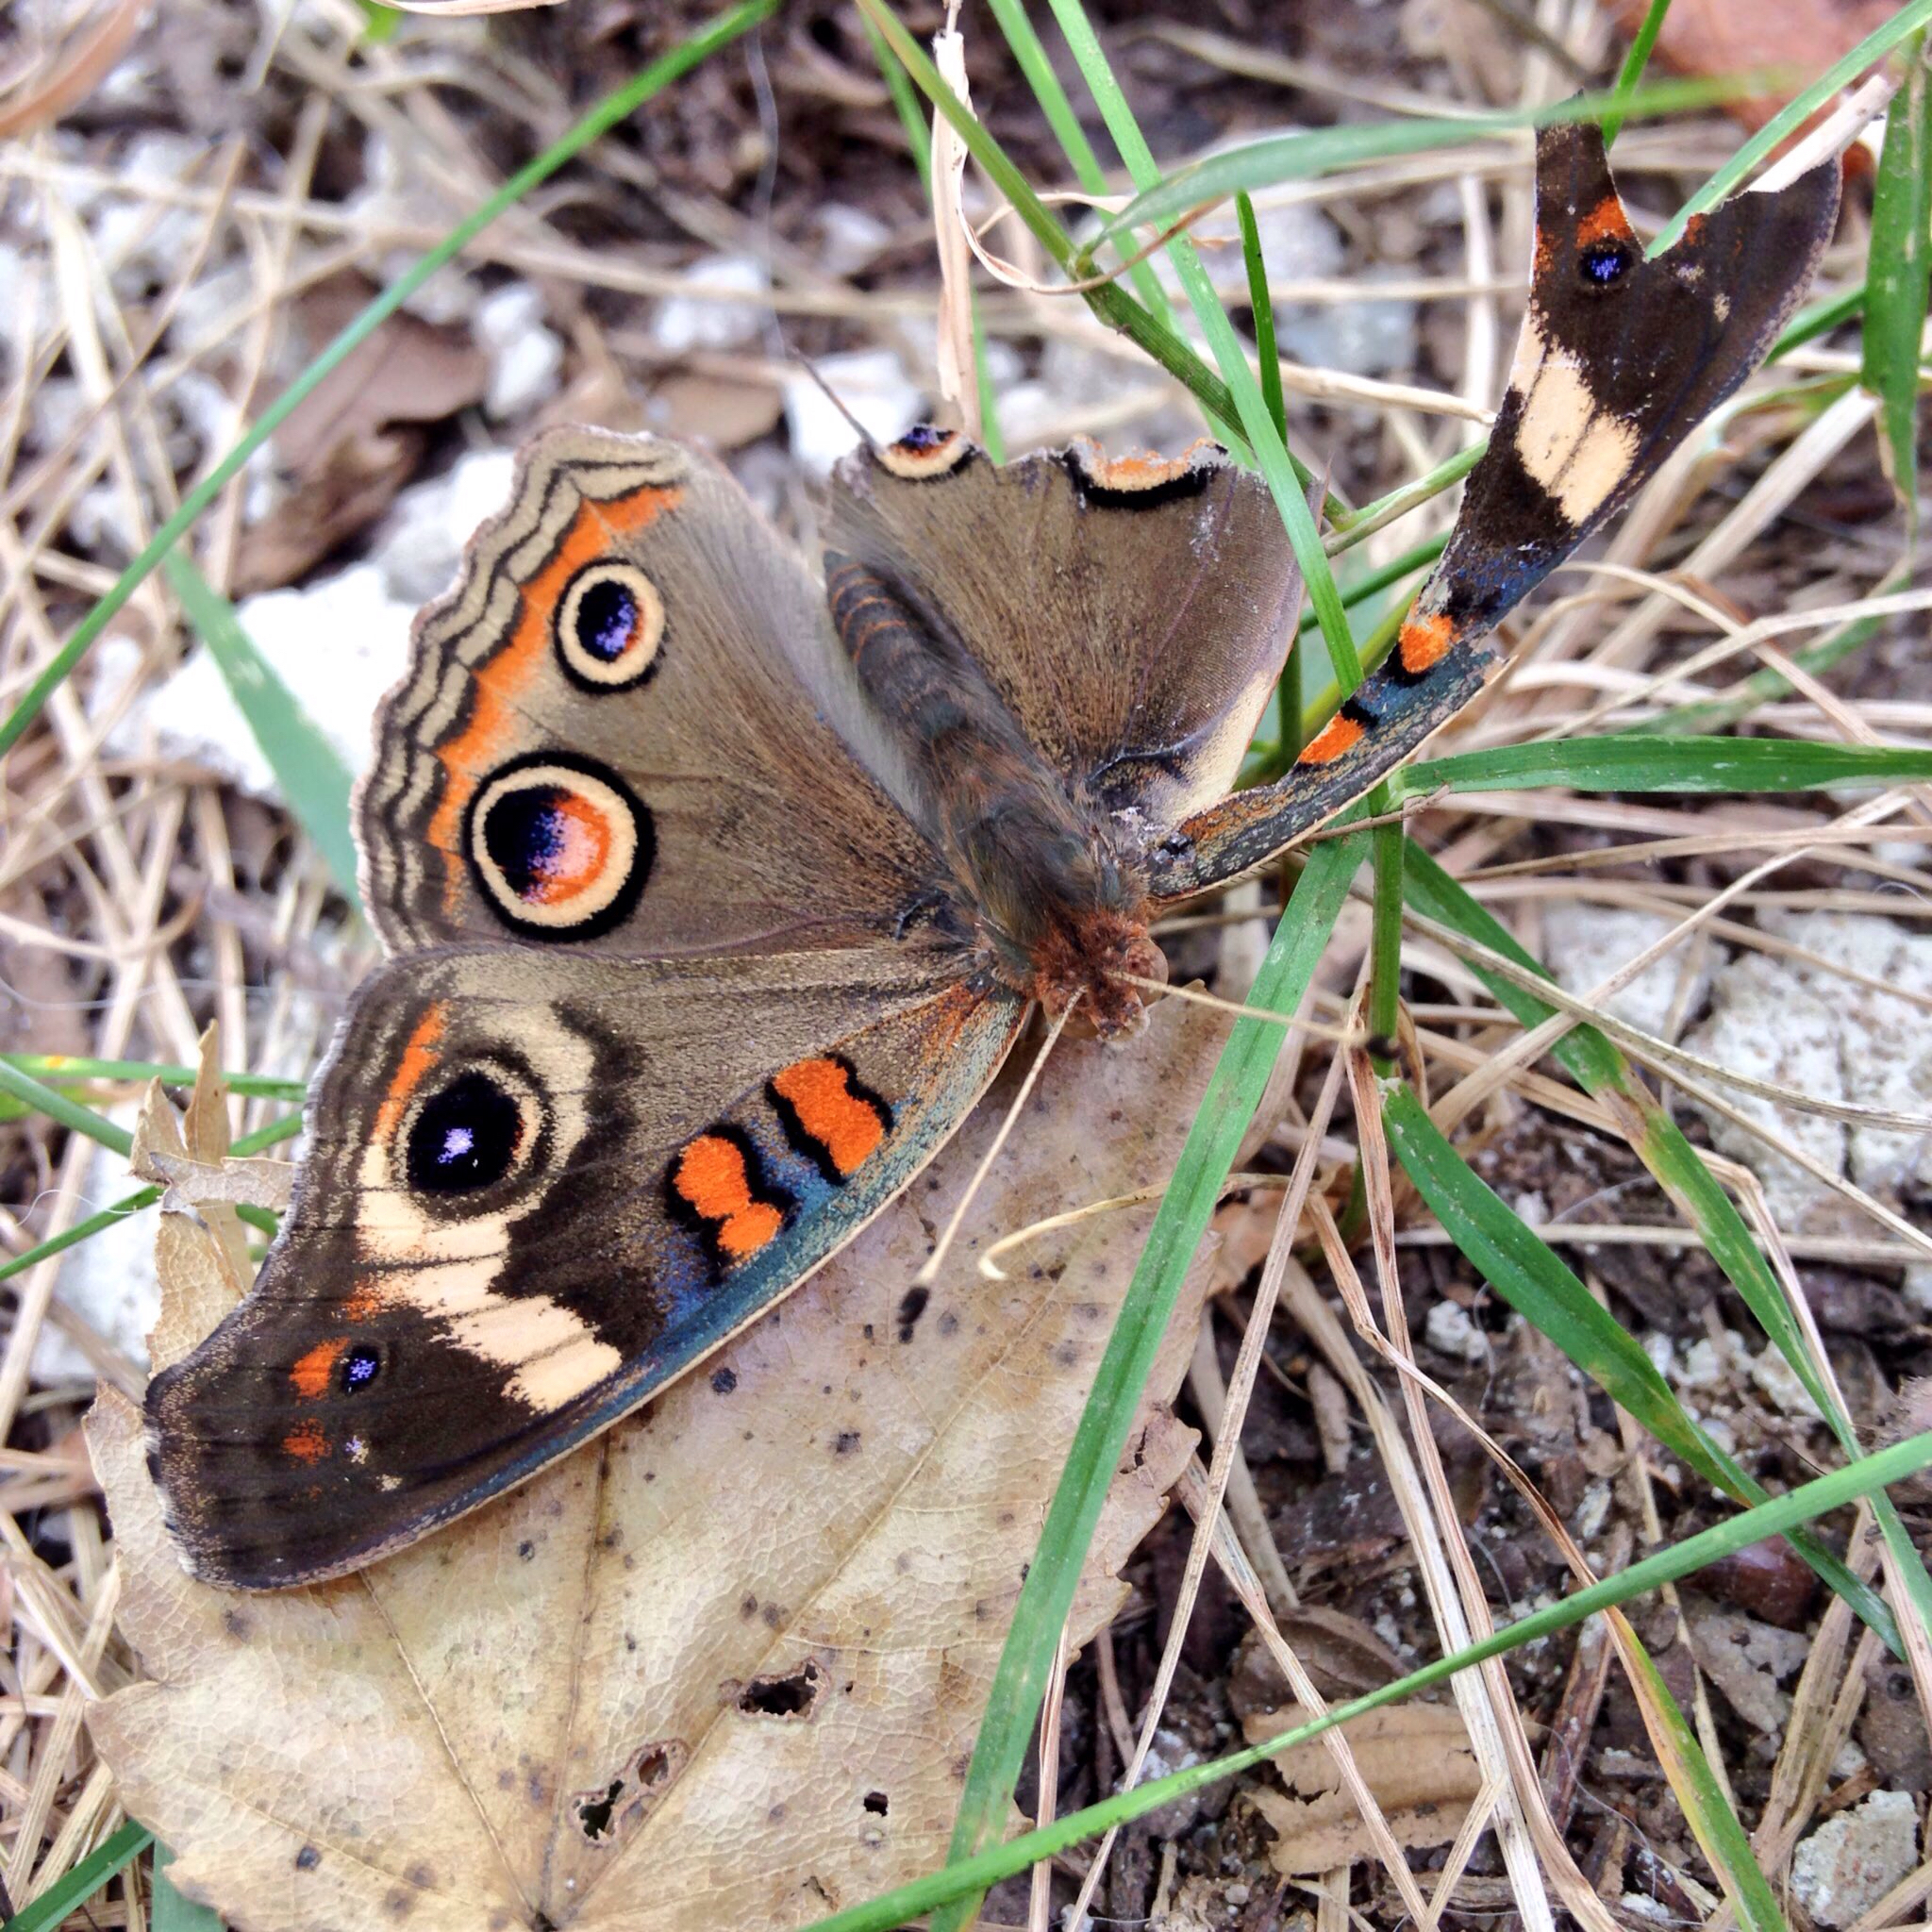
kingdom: Animalia
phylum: Arthropoda
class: Insecta
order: Lepidoptera
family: Nymphalidae
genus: Junonia
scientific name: Junonia coenia
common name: Common buckeye
